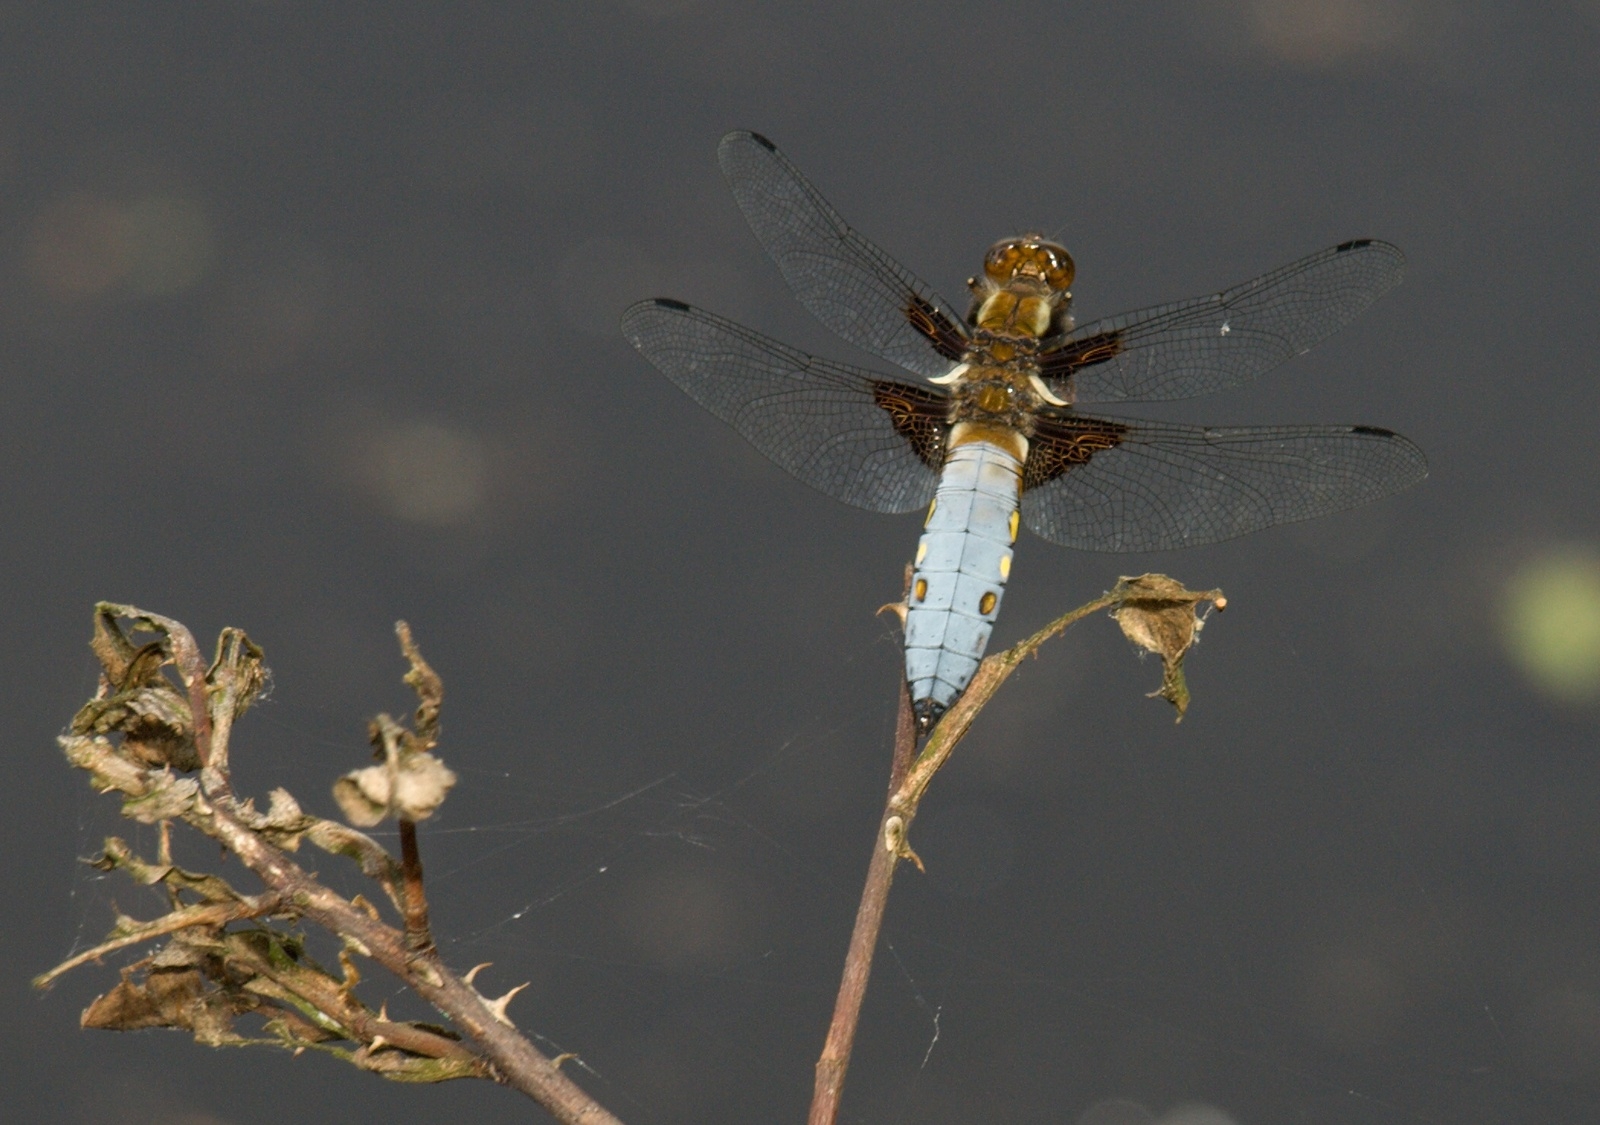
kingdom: Animalia
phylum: Arthropoda
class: Insecta
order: Odonata
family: Libellulidae
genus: Libellula
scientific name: Libellula depressa
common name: Broad-bodied chaser
